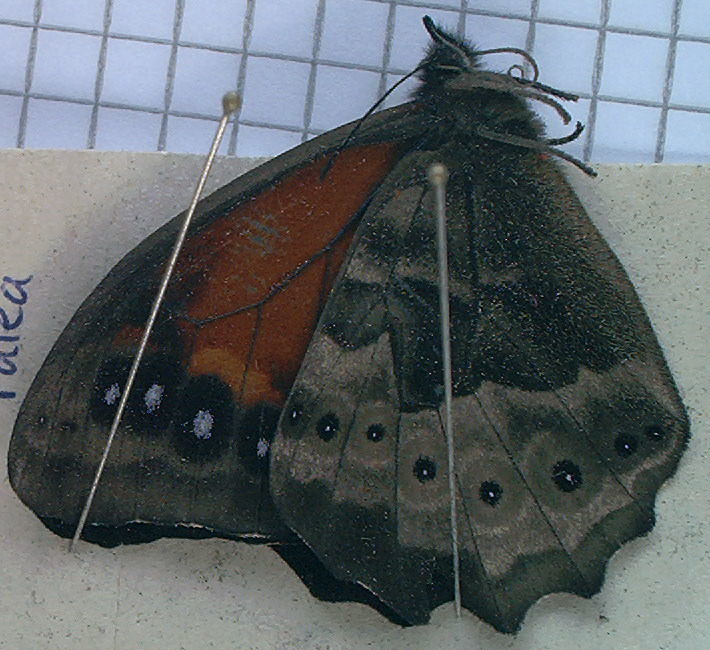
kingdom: Animalia
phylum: Arthropoda
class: Insecta
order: Lepidoptera
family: Nymphalidae
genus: Pronophila
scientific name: Pronophila cordillera
